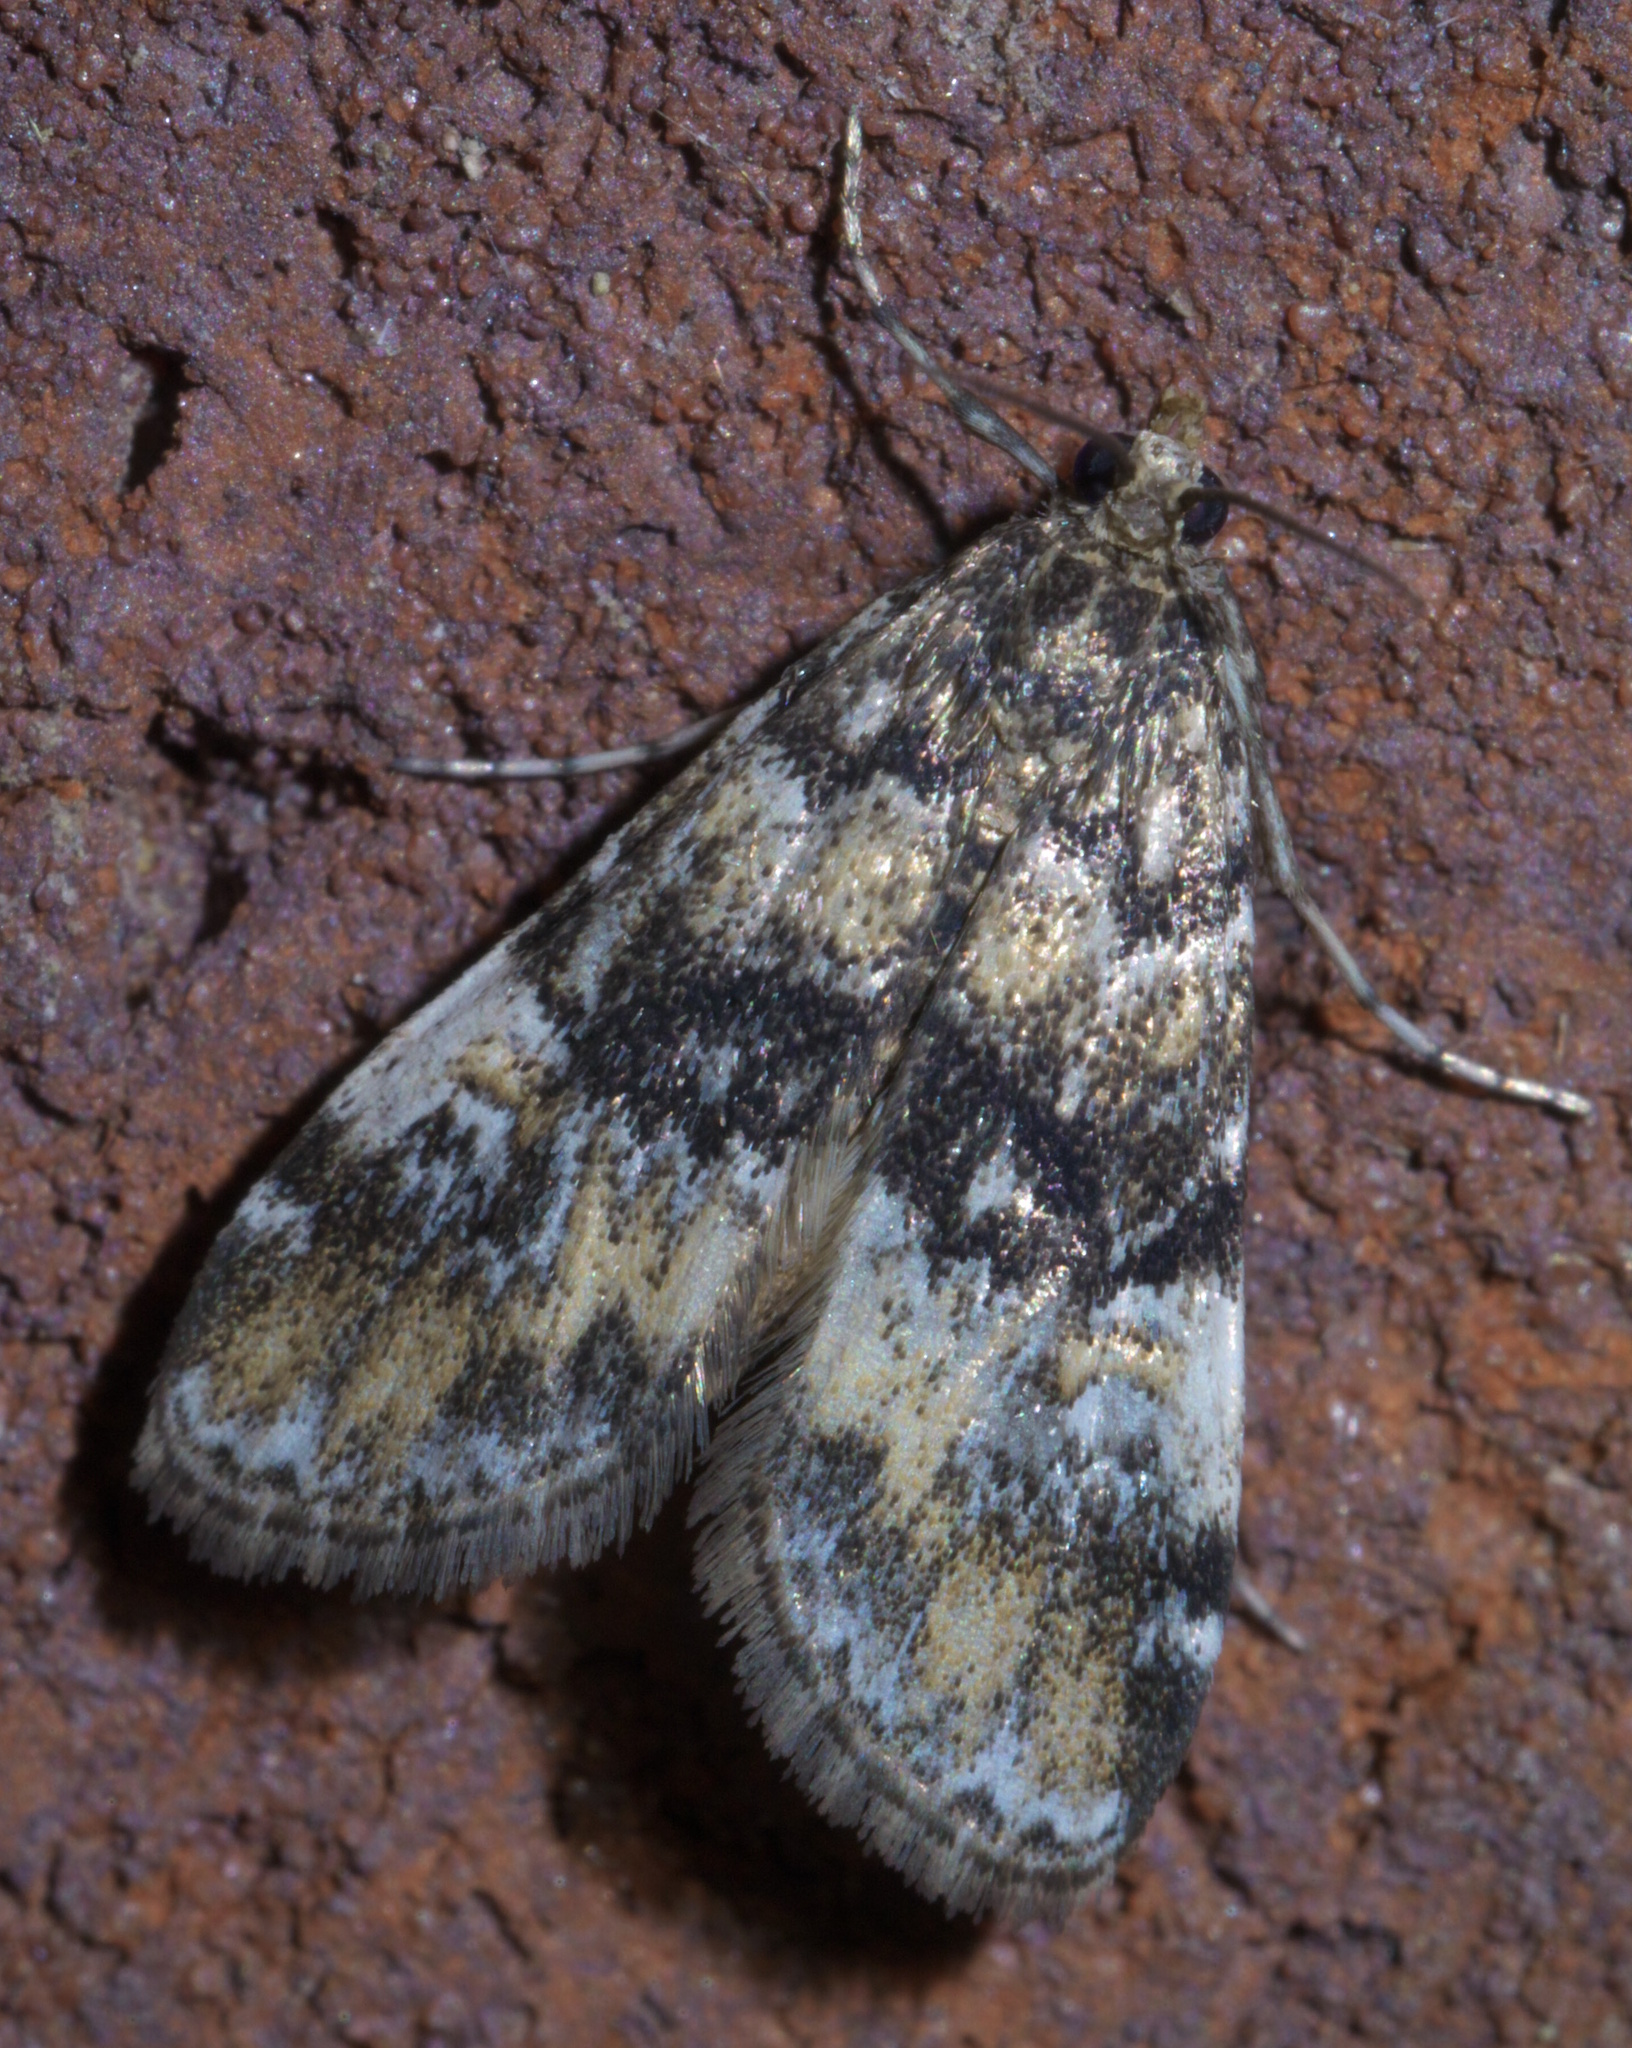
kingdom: Animalia
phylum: Arthropoda
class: Insecta
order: Lepidoptera
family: Crambidae
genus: Elophila
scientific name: Elophila obliteralis
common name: Waterlily leafcutter moth
